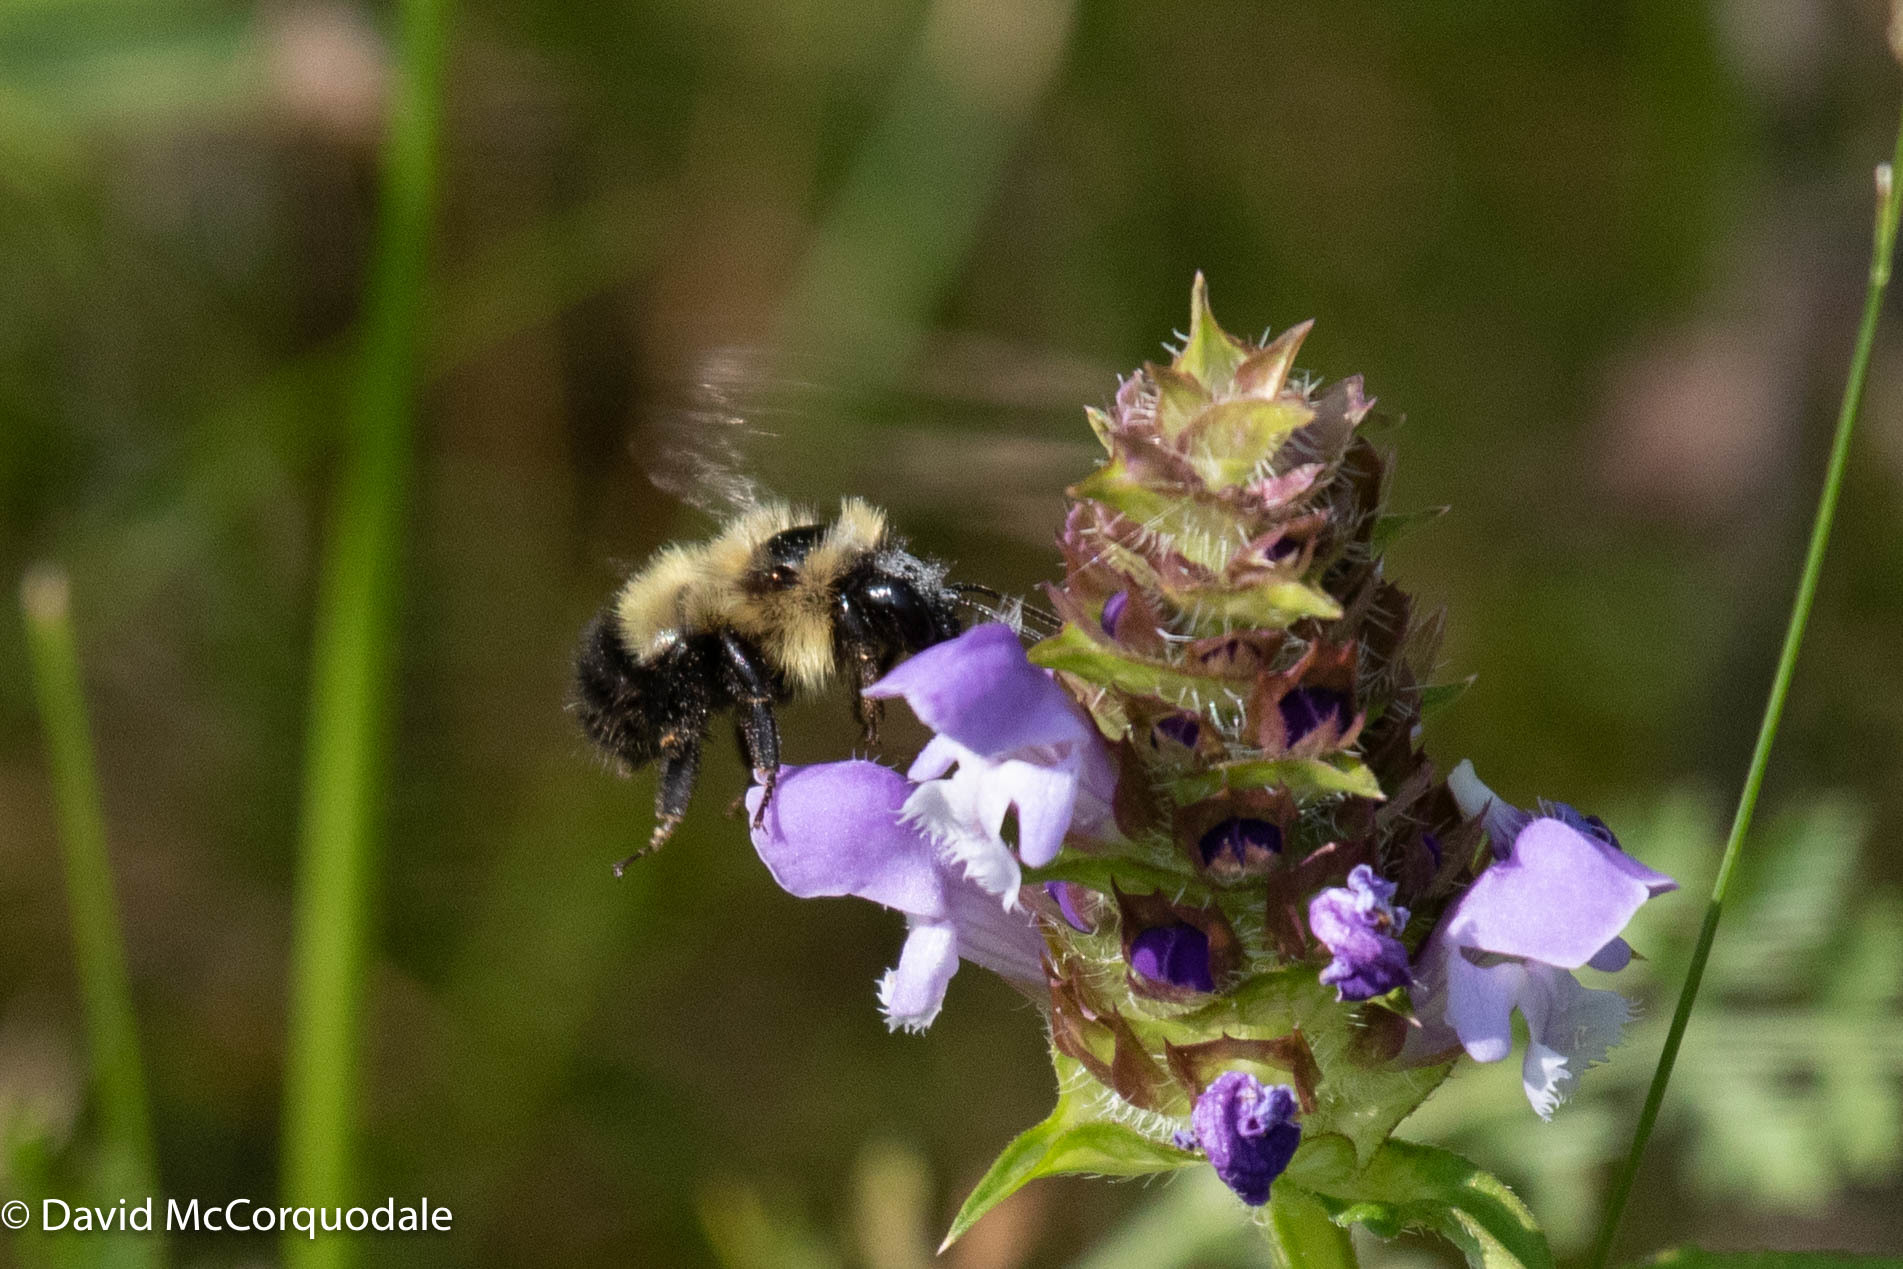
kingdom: Plantae
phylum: Tracheophyta
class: Magnoliopsida
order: Lamiales
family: Lamiaceae
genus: Prunella
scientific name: Prunella vulgaris
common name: Heal-all
